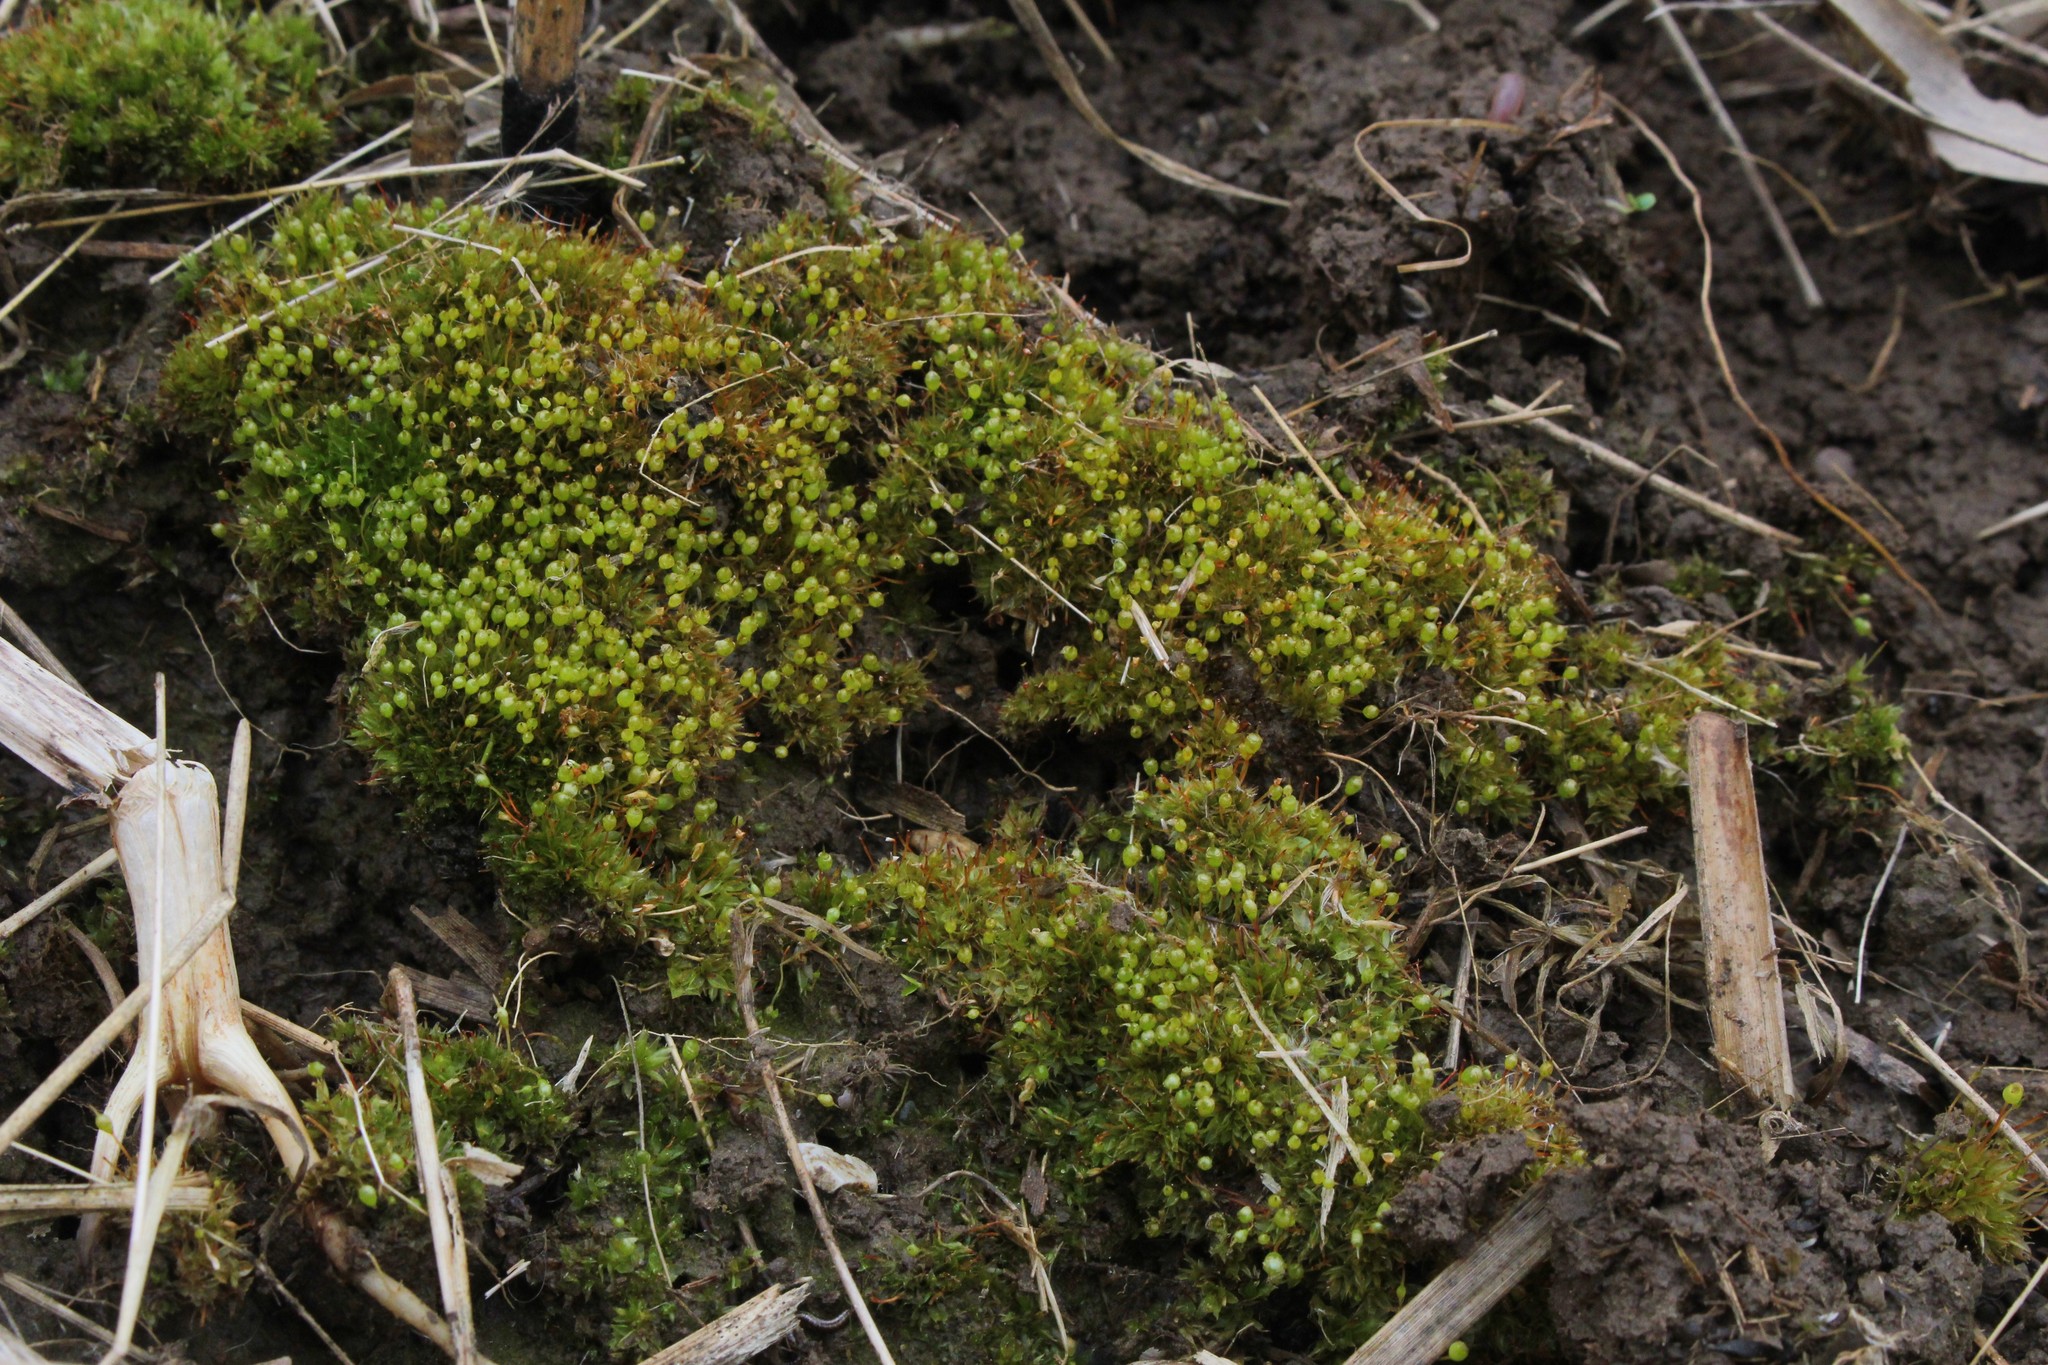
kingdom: Plantae
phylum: Bryophyta
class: Bryopsida
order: Funariales
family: Funariaceae
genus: Physcomitrium
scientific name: Physcomitrium pyriforme
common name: Common bladder-moss
